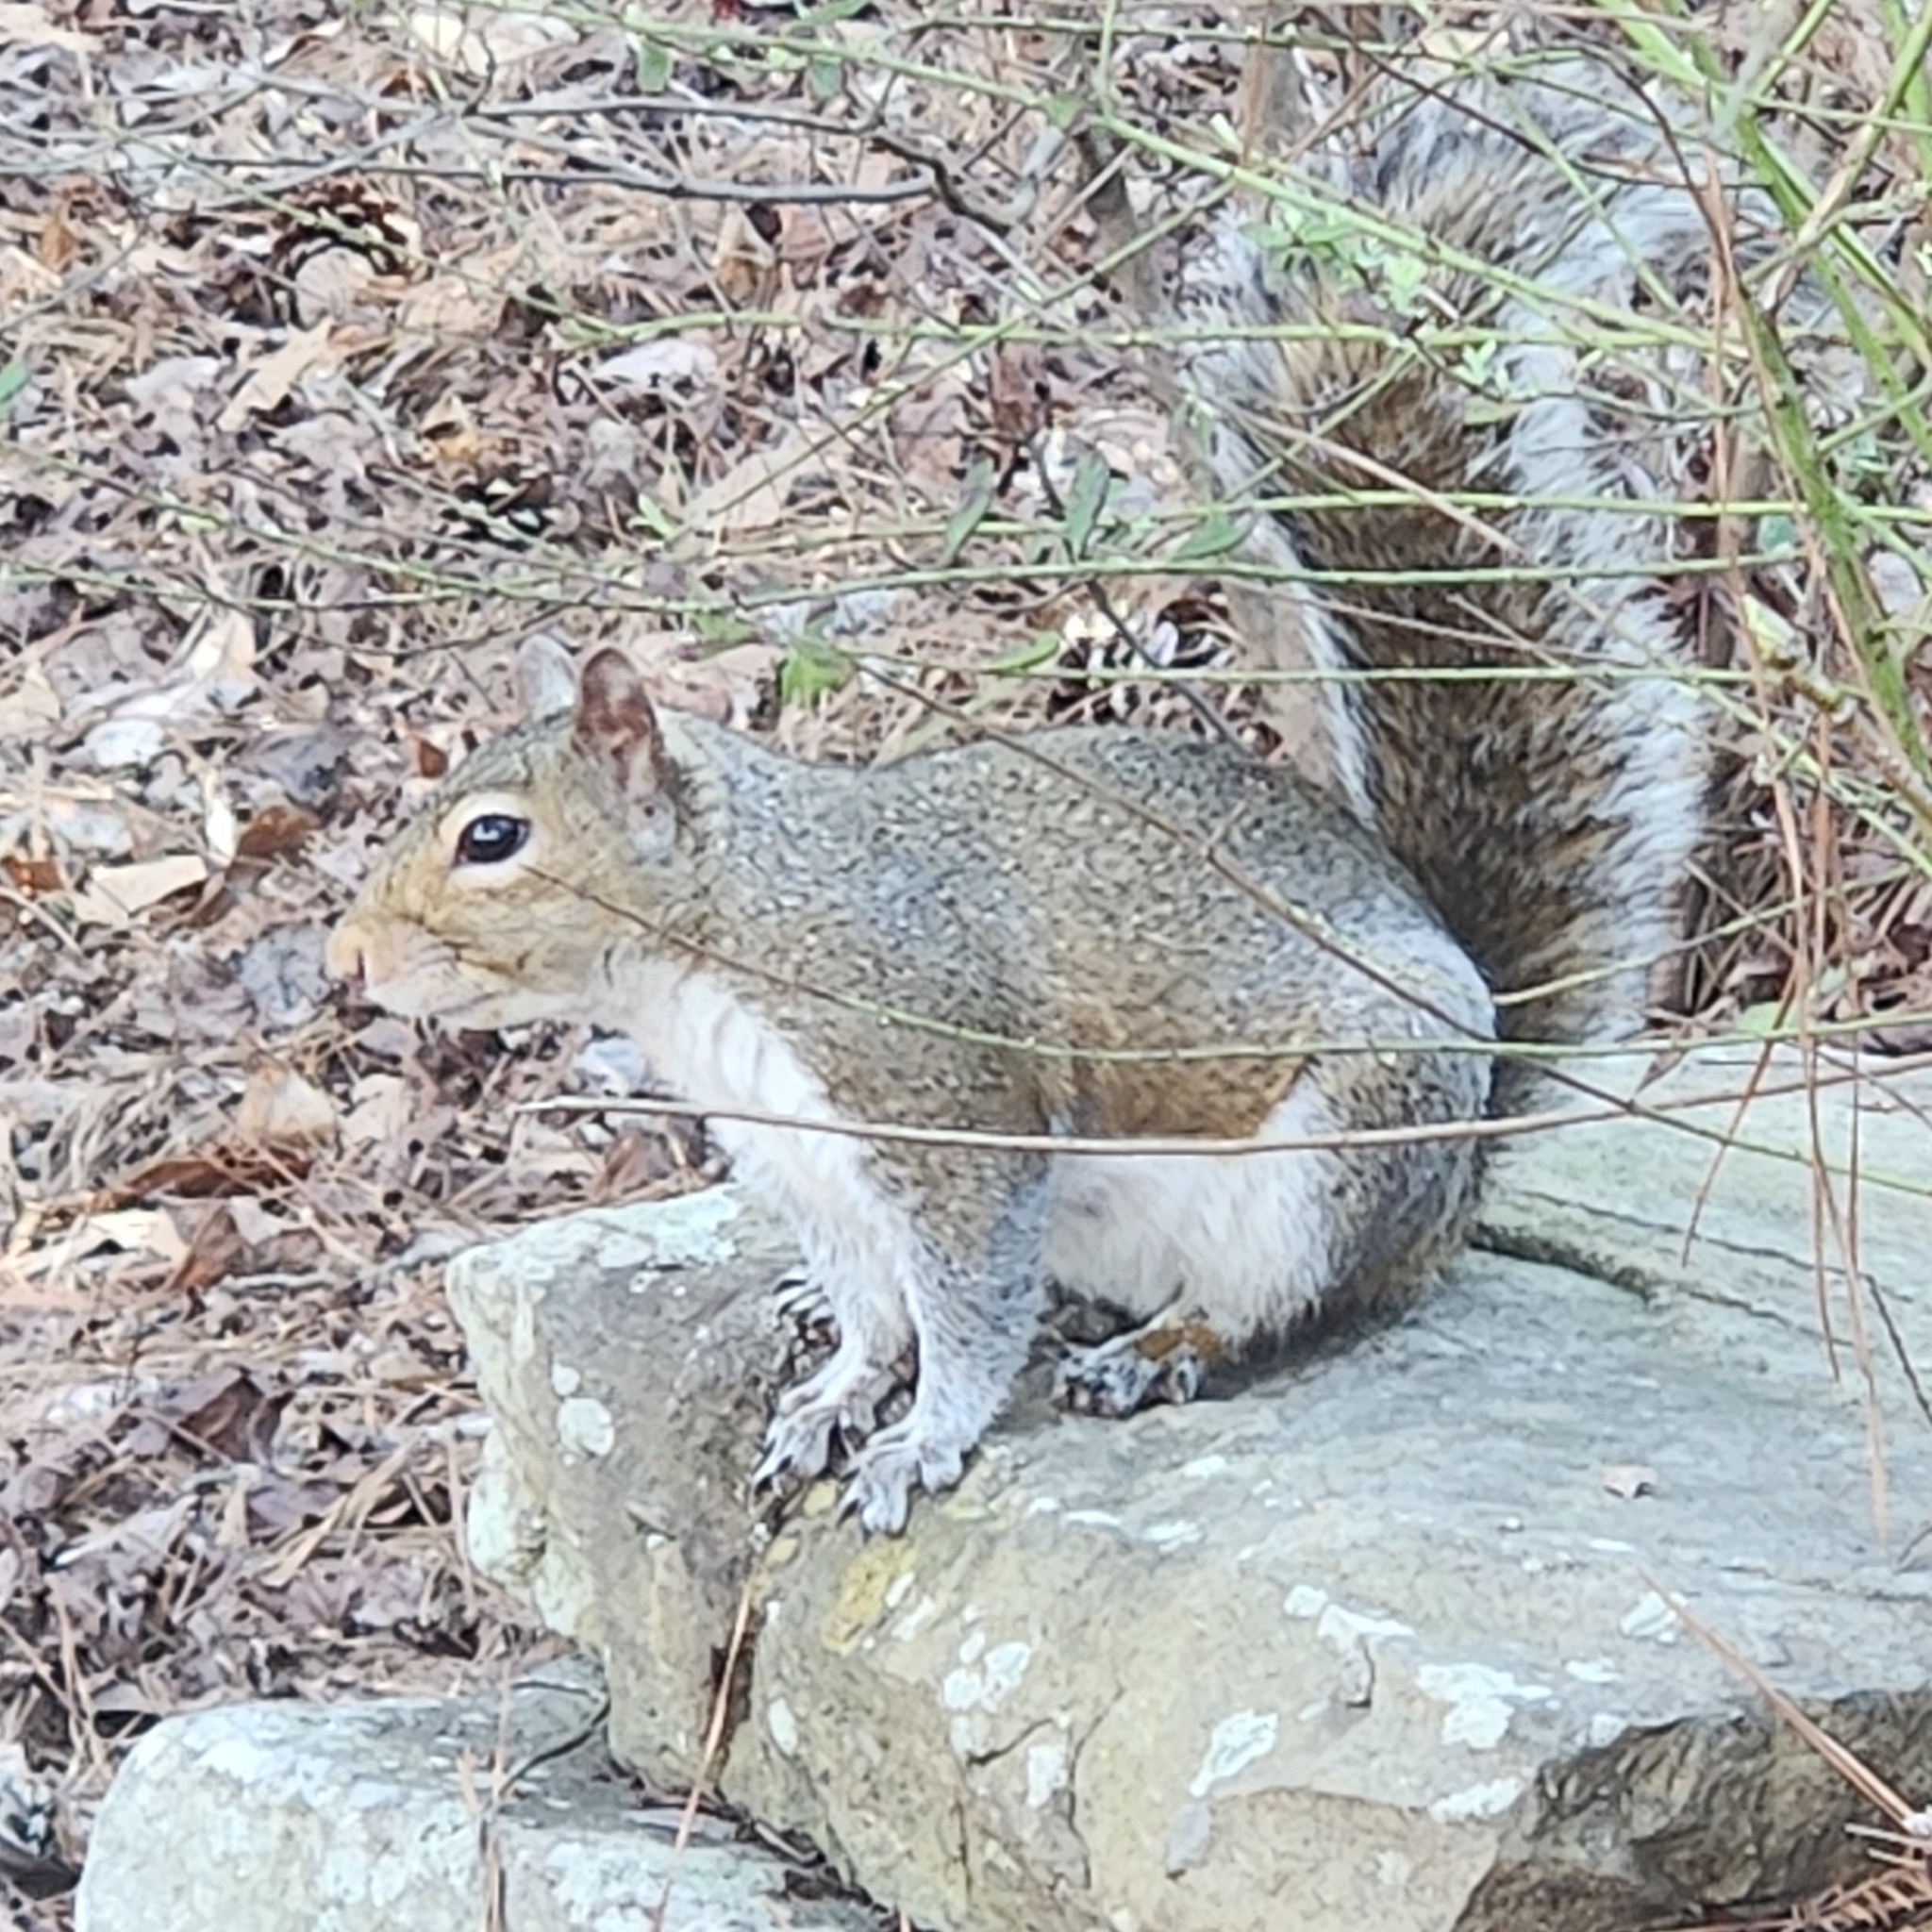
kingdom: Animalia
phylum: Chordata
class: Mammalia
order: Rodentia
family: Sciuridae
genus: Sciurus
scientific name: Sciurus carolinensis
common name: Eastern gray squirrel
